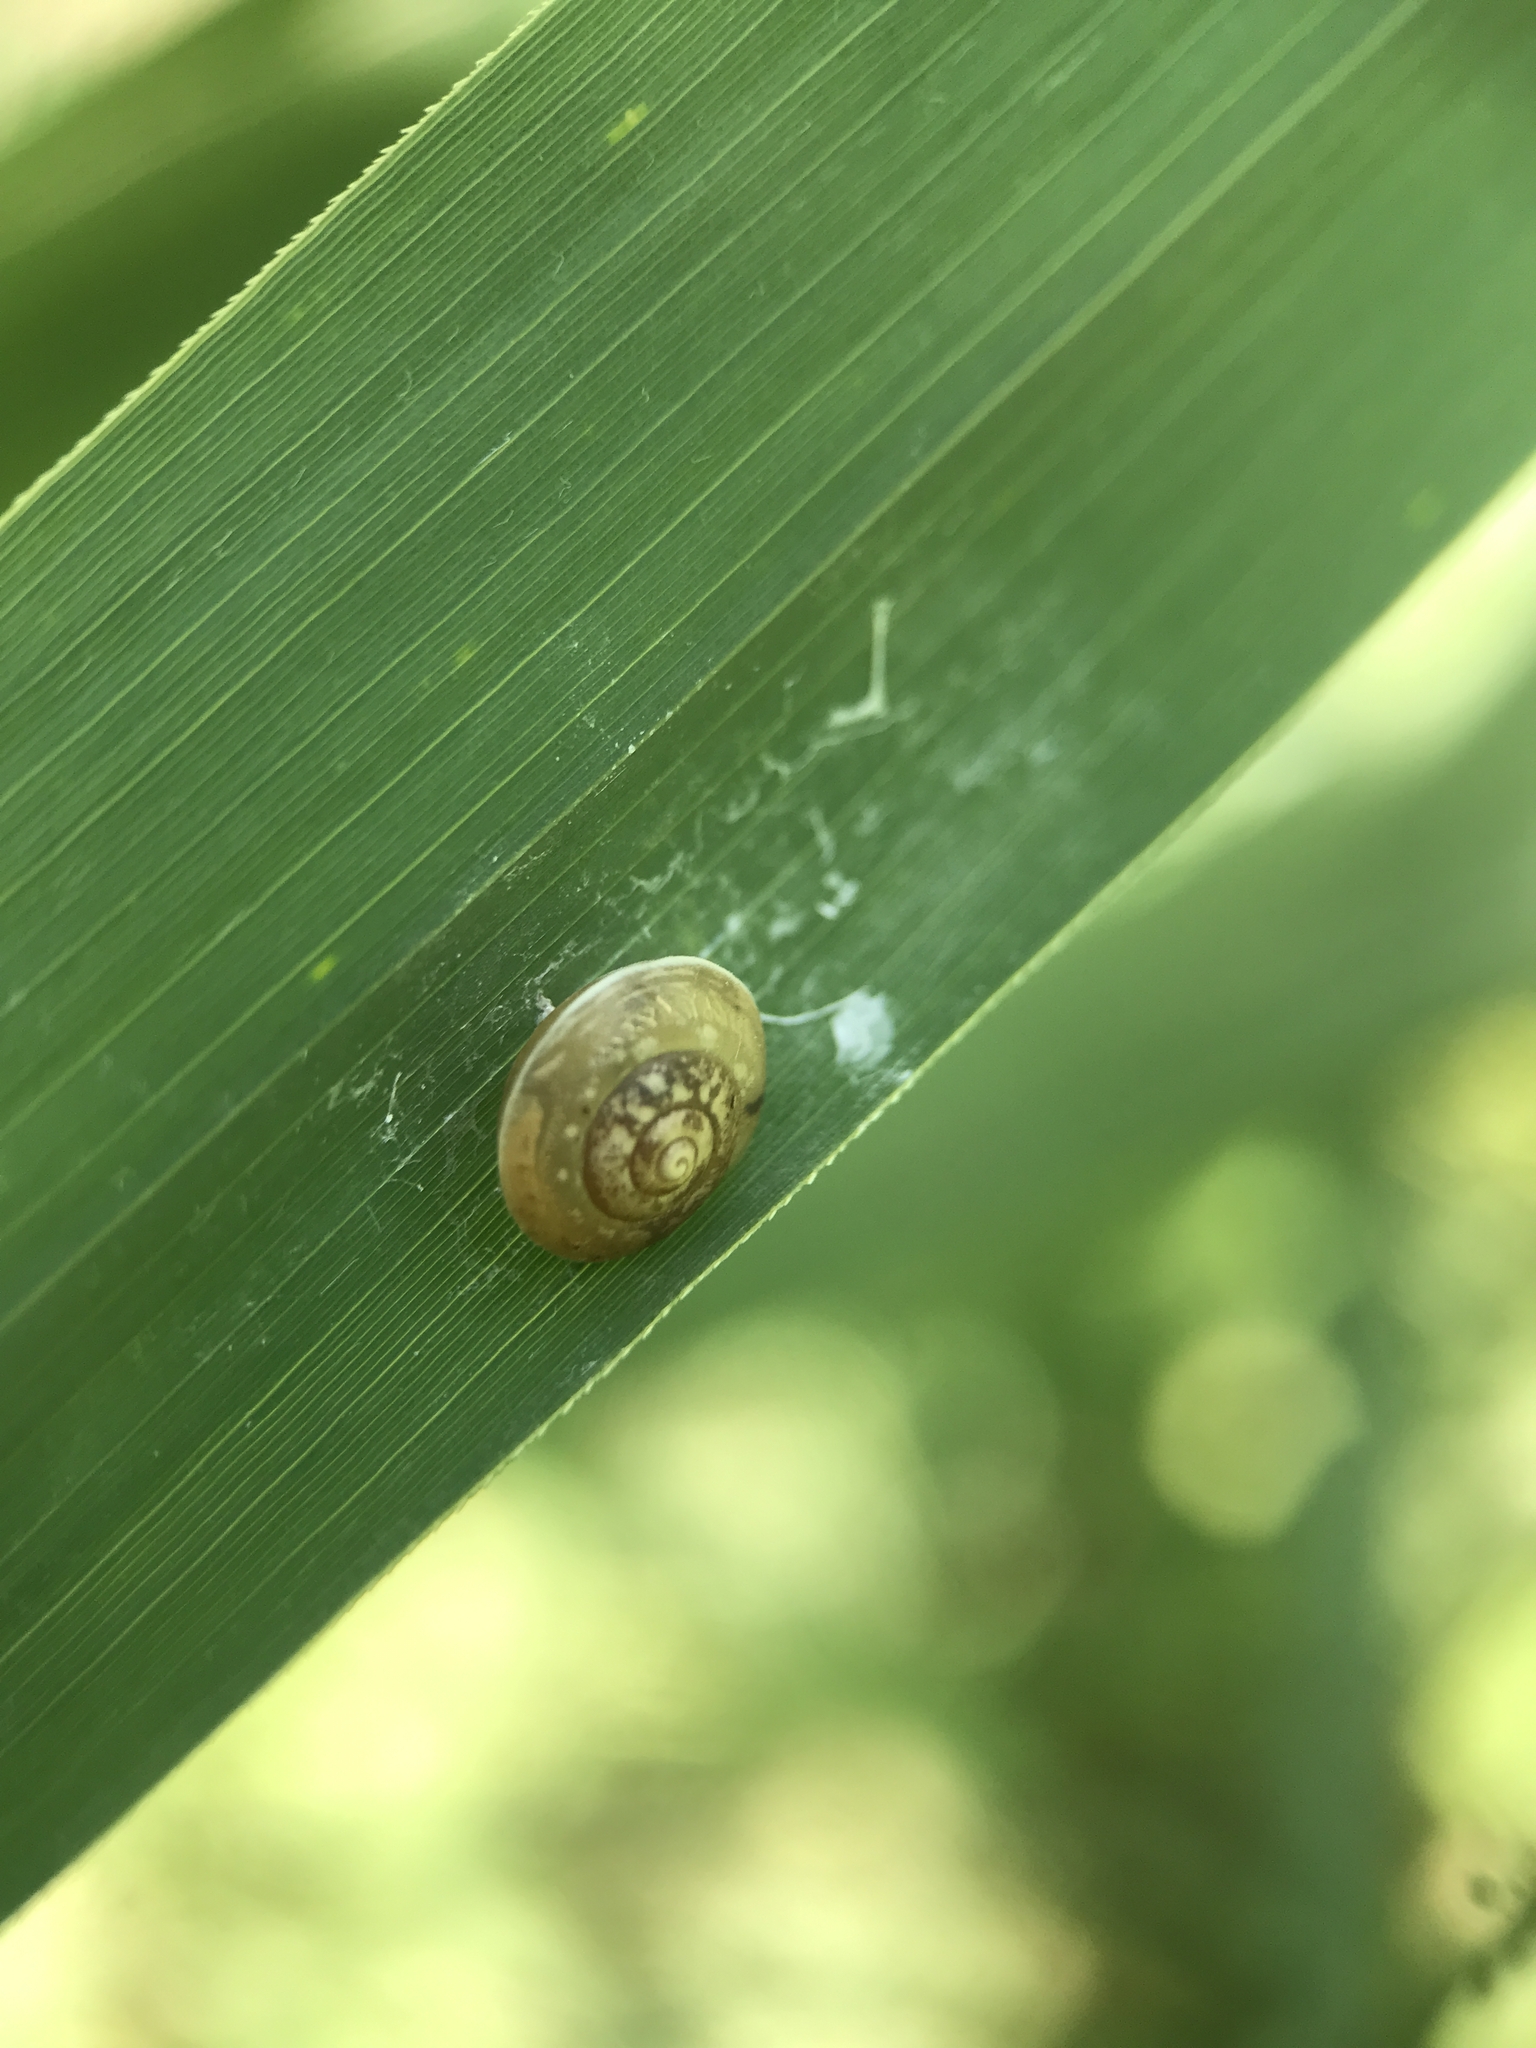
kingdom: Animalia
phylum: Mollusca
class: Gastropoda
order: Stylommatophora
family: Hygromiidae
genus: Hygromia
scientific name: Hygromia cinctella
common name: Girdled snail
